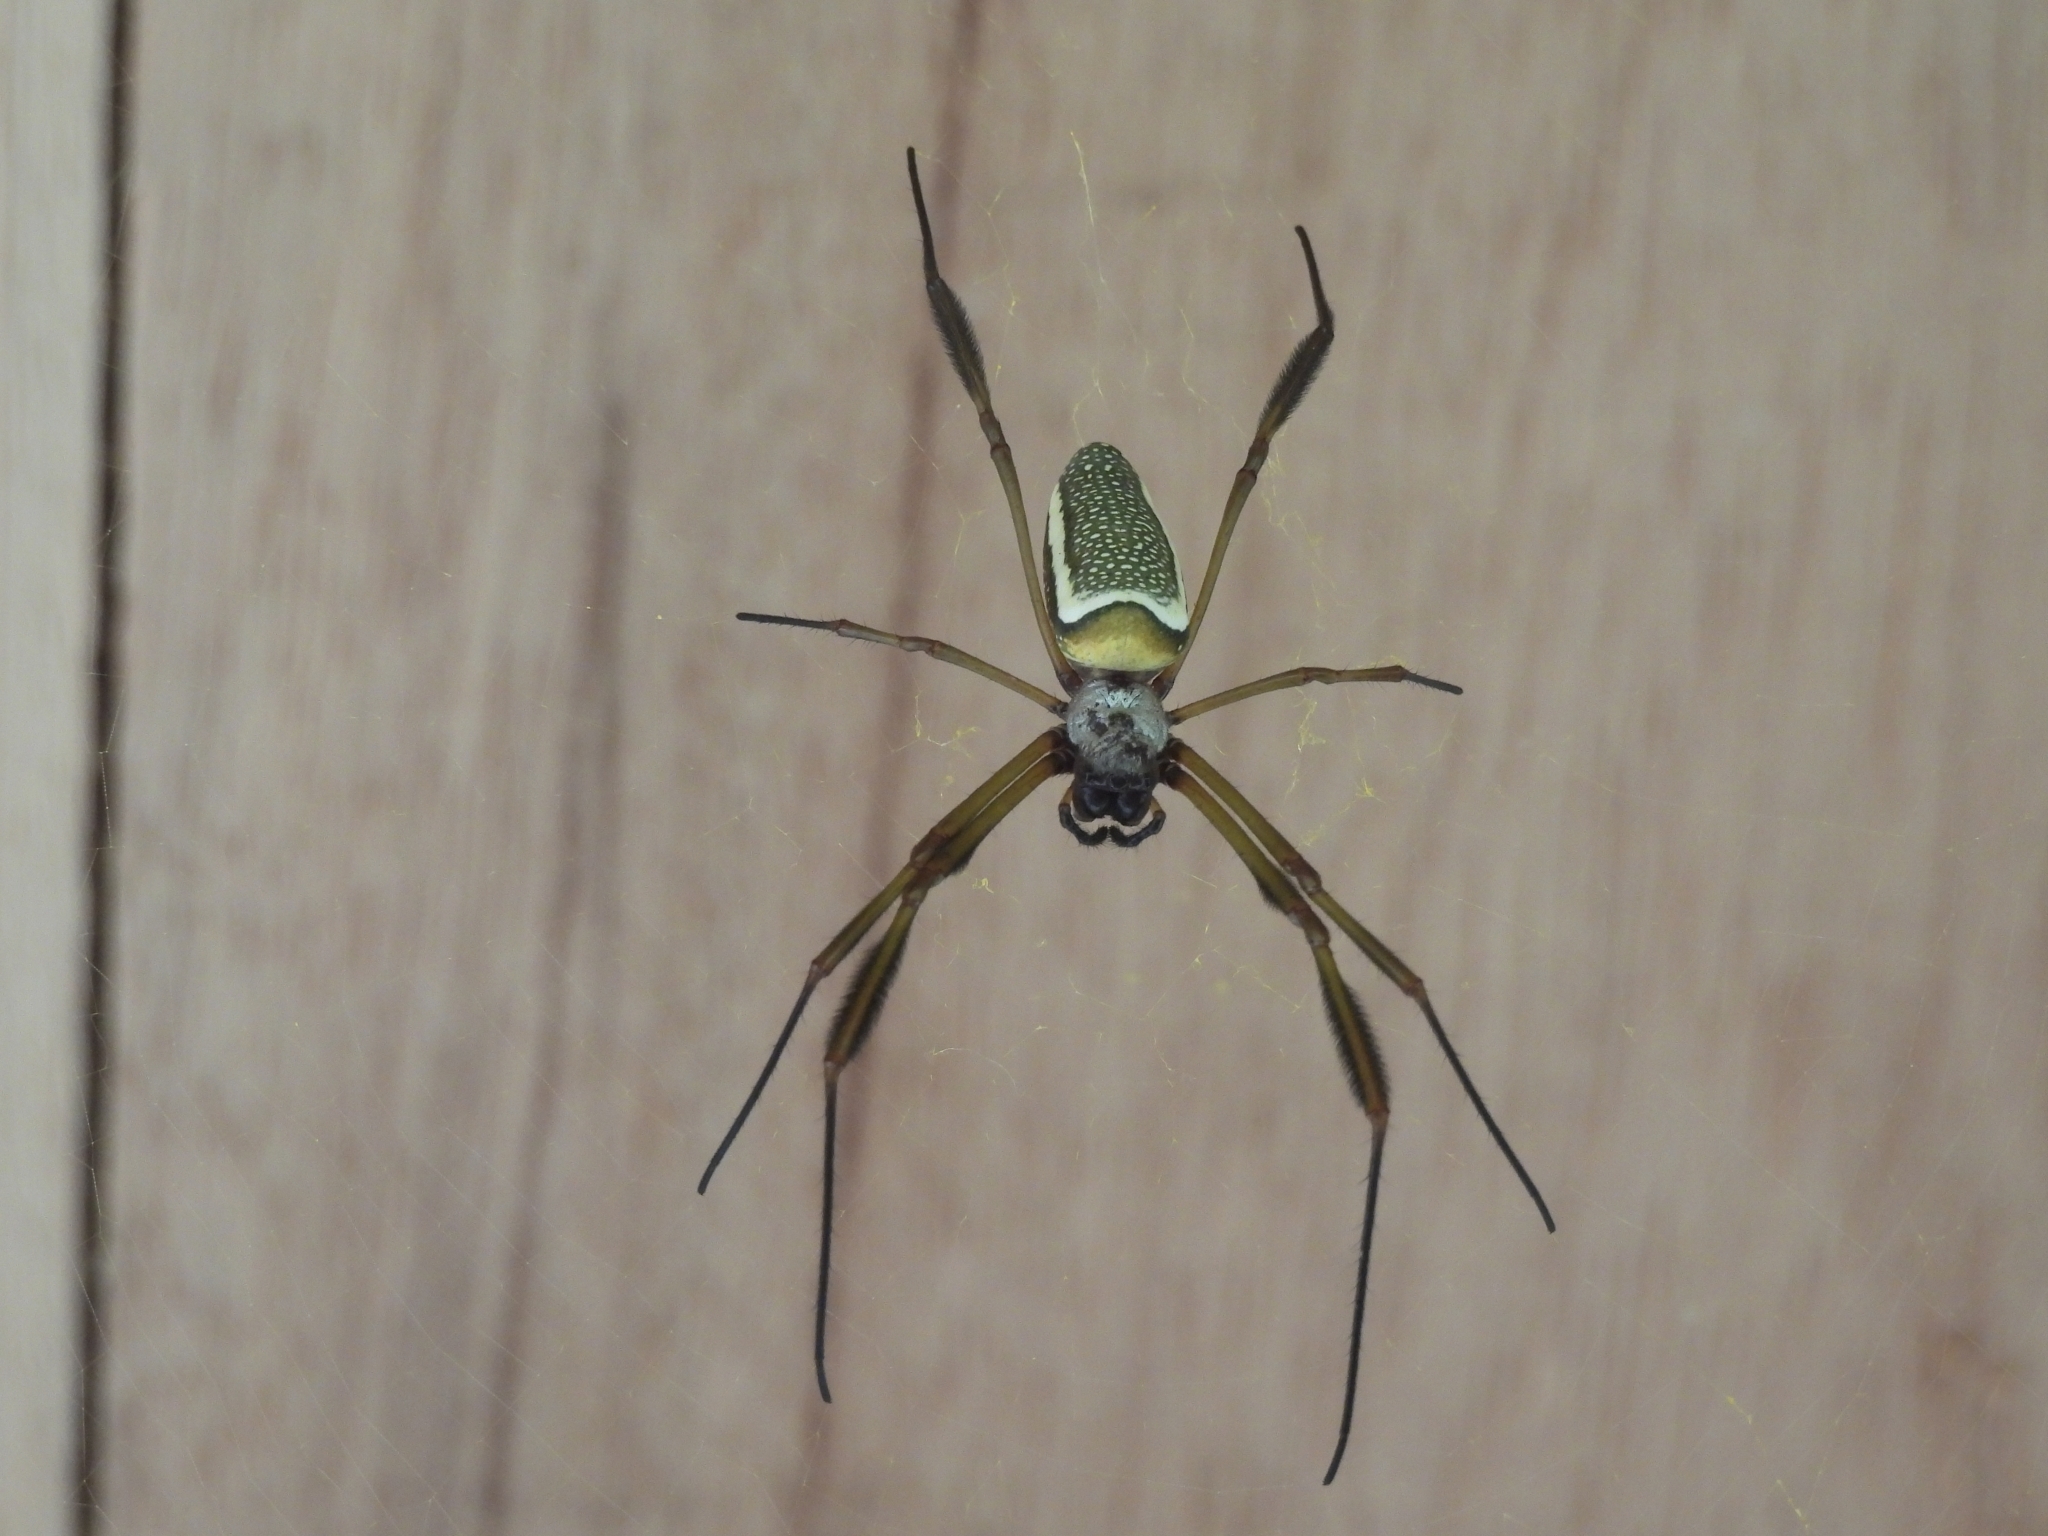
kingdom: Animalia
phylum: Arthropoda
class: Arachnida
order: Araneae
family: Araneidae
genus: Trichonephila
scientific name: Trichonephila clavipes
